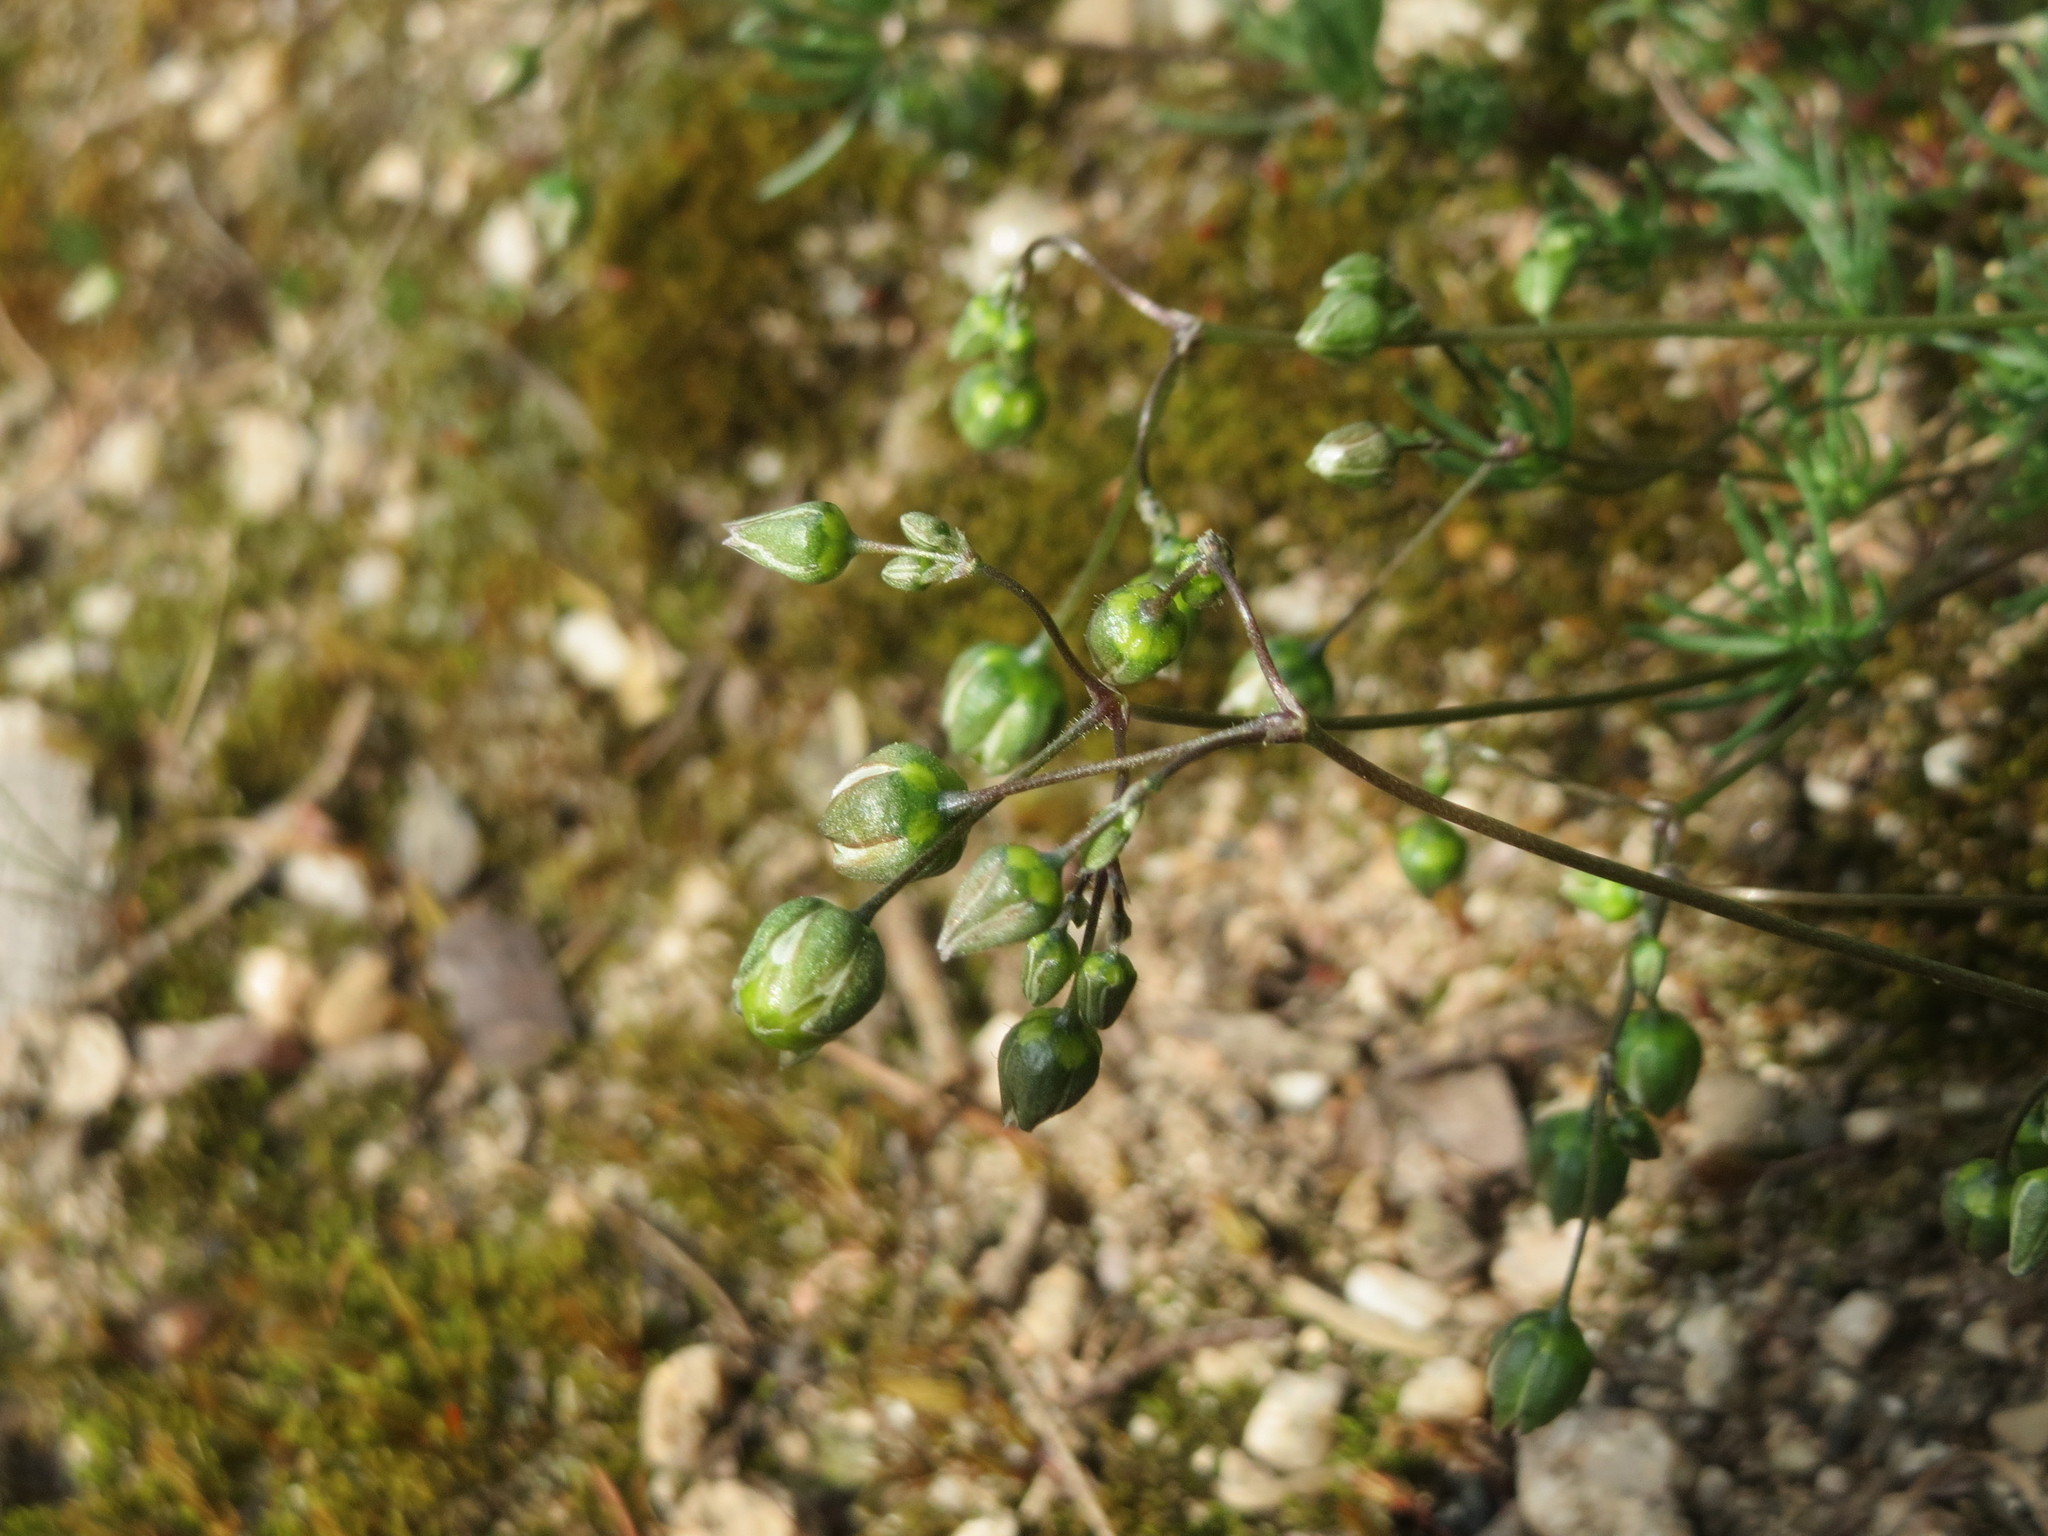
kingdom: Plantae
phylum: Tracheophyta
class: Magnoliopsida
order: Caryophyllales
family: Caryophyllaceae
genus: Spergula
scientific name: Spergula morisonii
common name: Pearlwort spurrey
